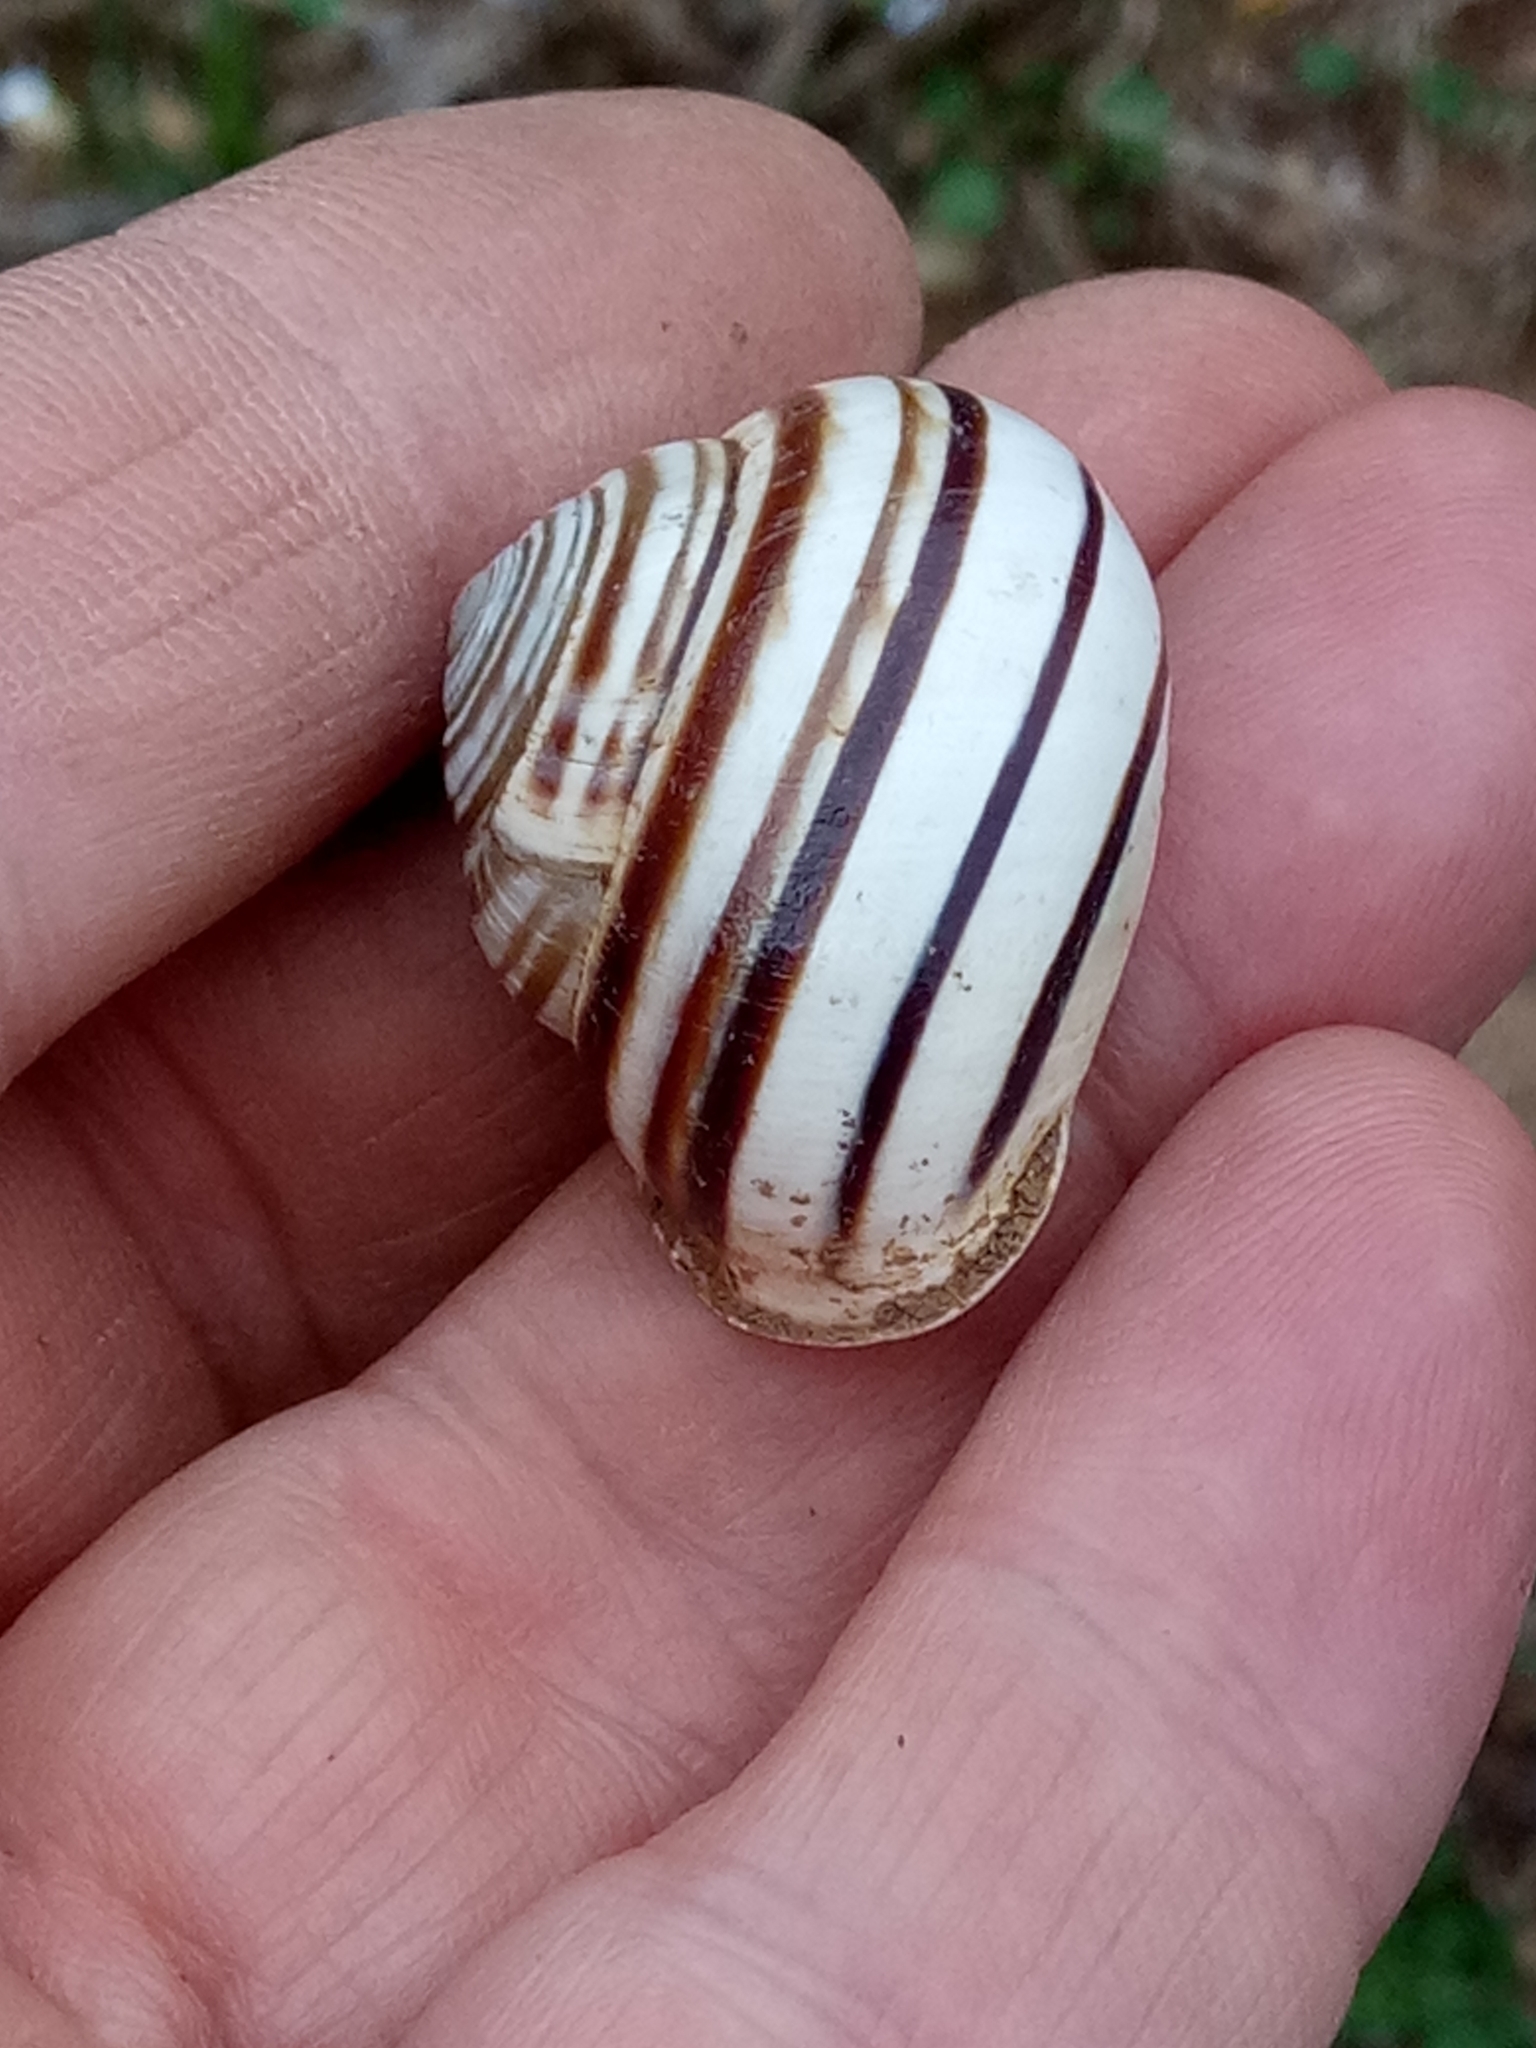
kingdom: Animalia
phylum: Mollusca
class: Gastropoda
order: Stylommatophora
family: Helicidae
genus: Eobania
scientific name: Eobania constantina
